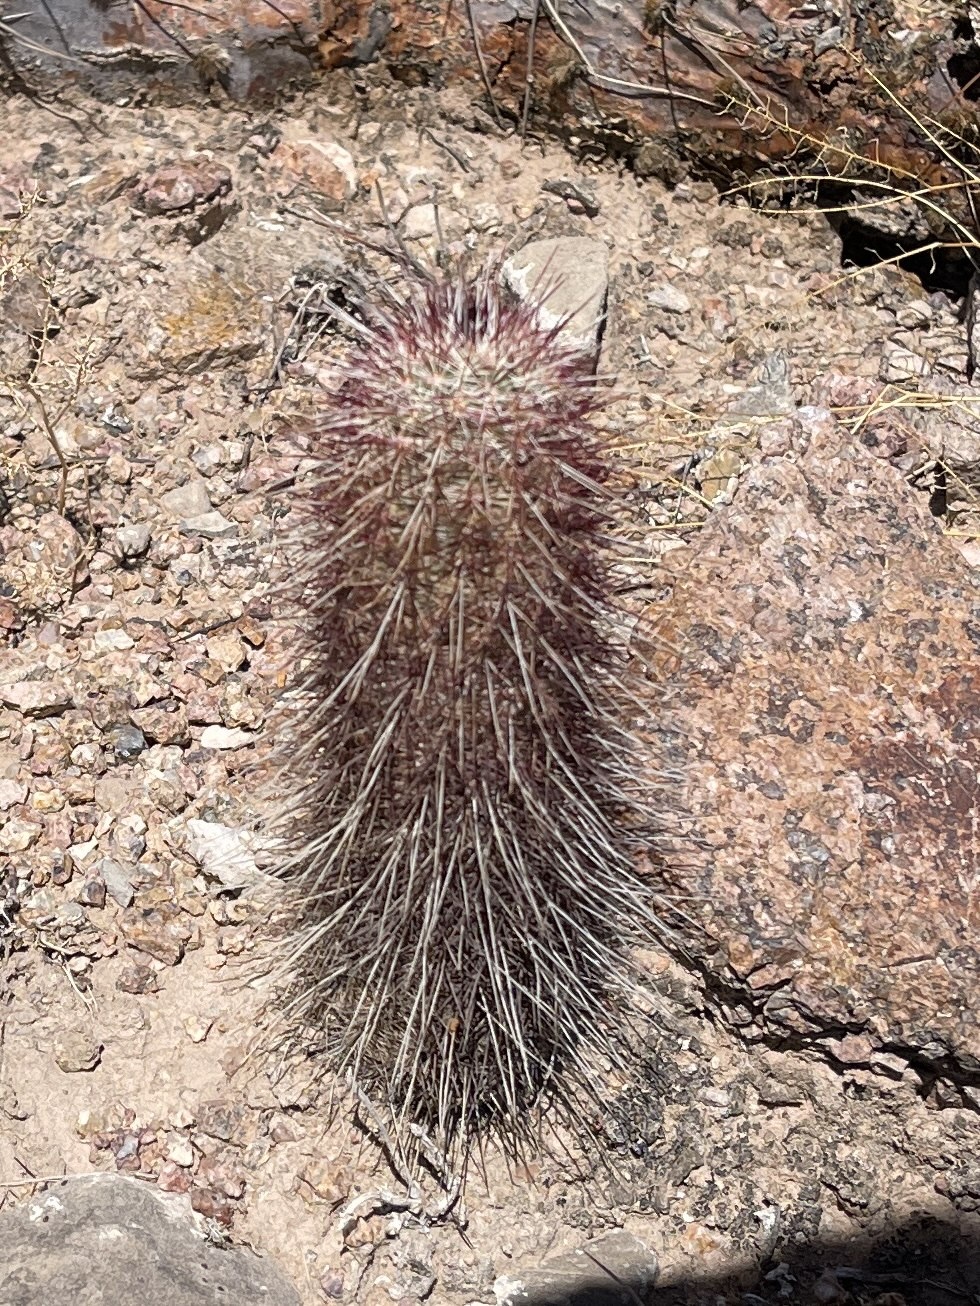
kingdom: Plantae
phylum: Tracheophyta
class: Magnoliopsida
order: Caryophyllales
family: Cactaceae
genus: Echinocereus
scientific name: Echinocereus viridiflorus
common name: Nylon hedgehog cactus
